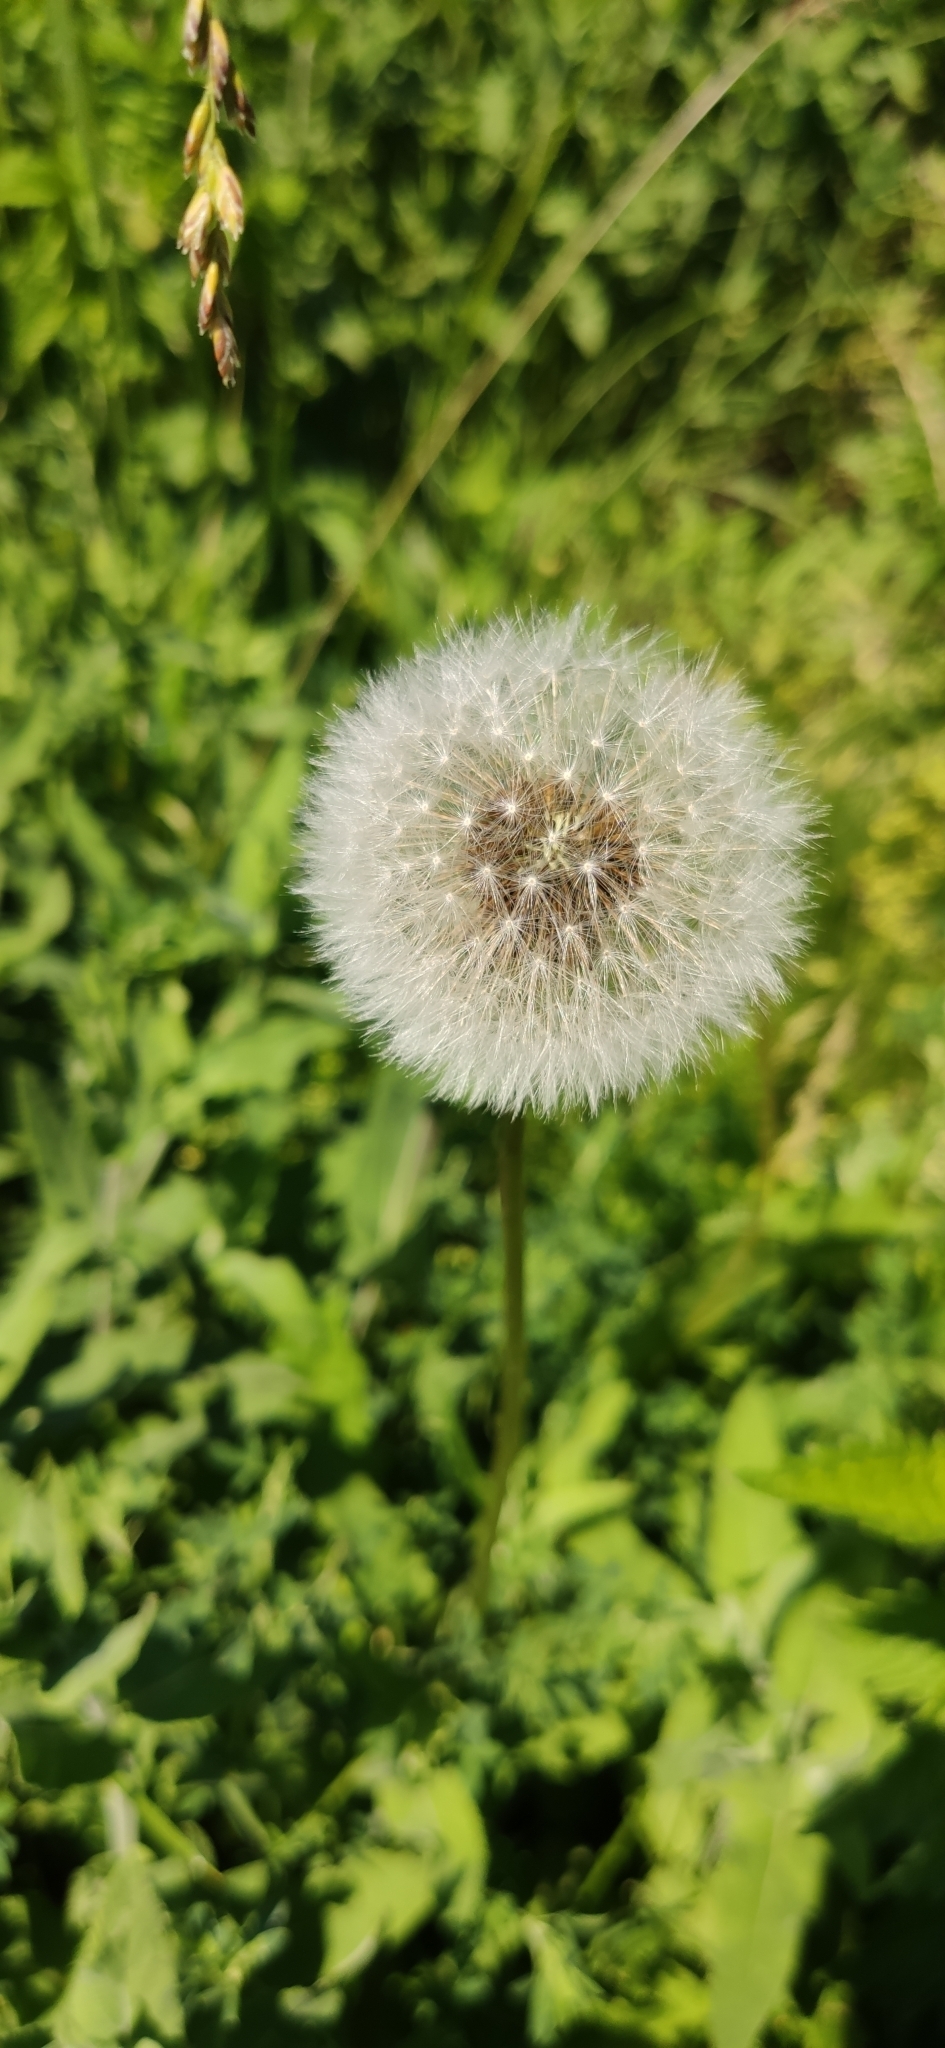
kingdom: Plantae
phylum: Tracheophyta
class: Magnoliopsida
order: Asterales
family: Asteraceae
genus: Taraxacum
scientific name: Taraxacum officinale
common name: Common dandelion
